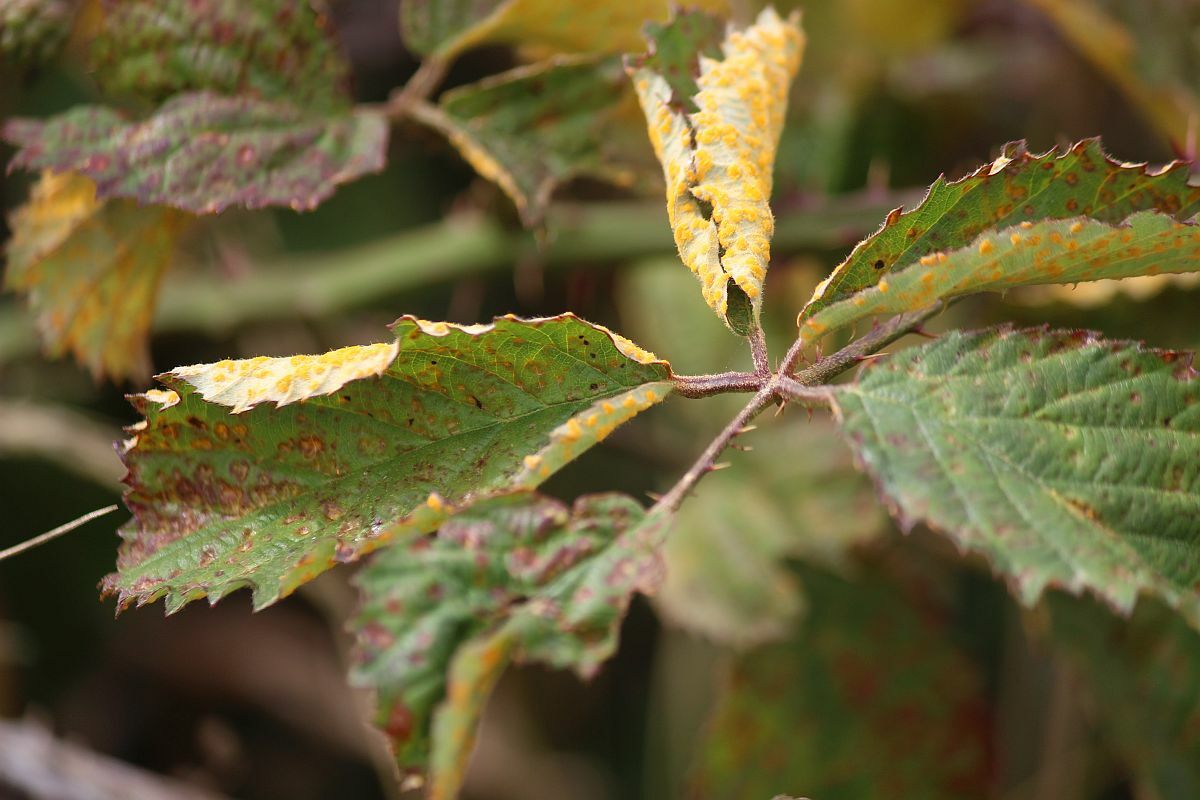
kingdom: Fungi
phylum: Basidiomycota
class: Pucciniomycetes
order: Pucciniales
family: Phragmidiaceae
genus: Phragmidium
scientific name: Phragmidium violaceum
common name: Violet bramble rust
